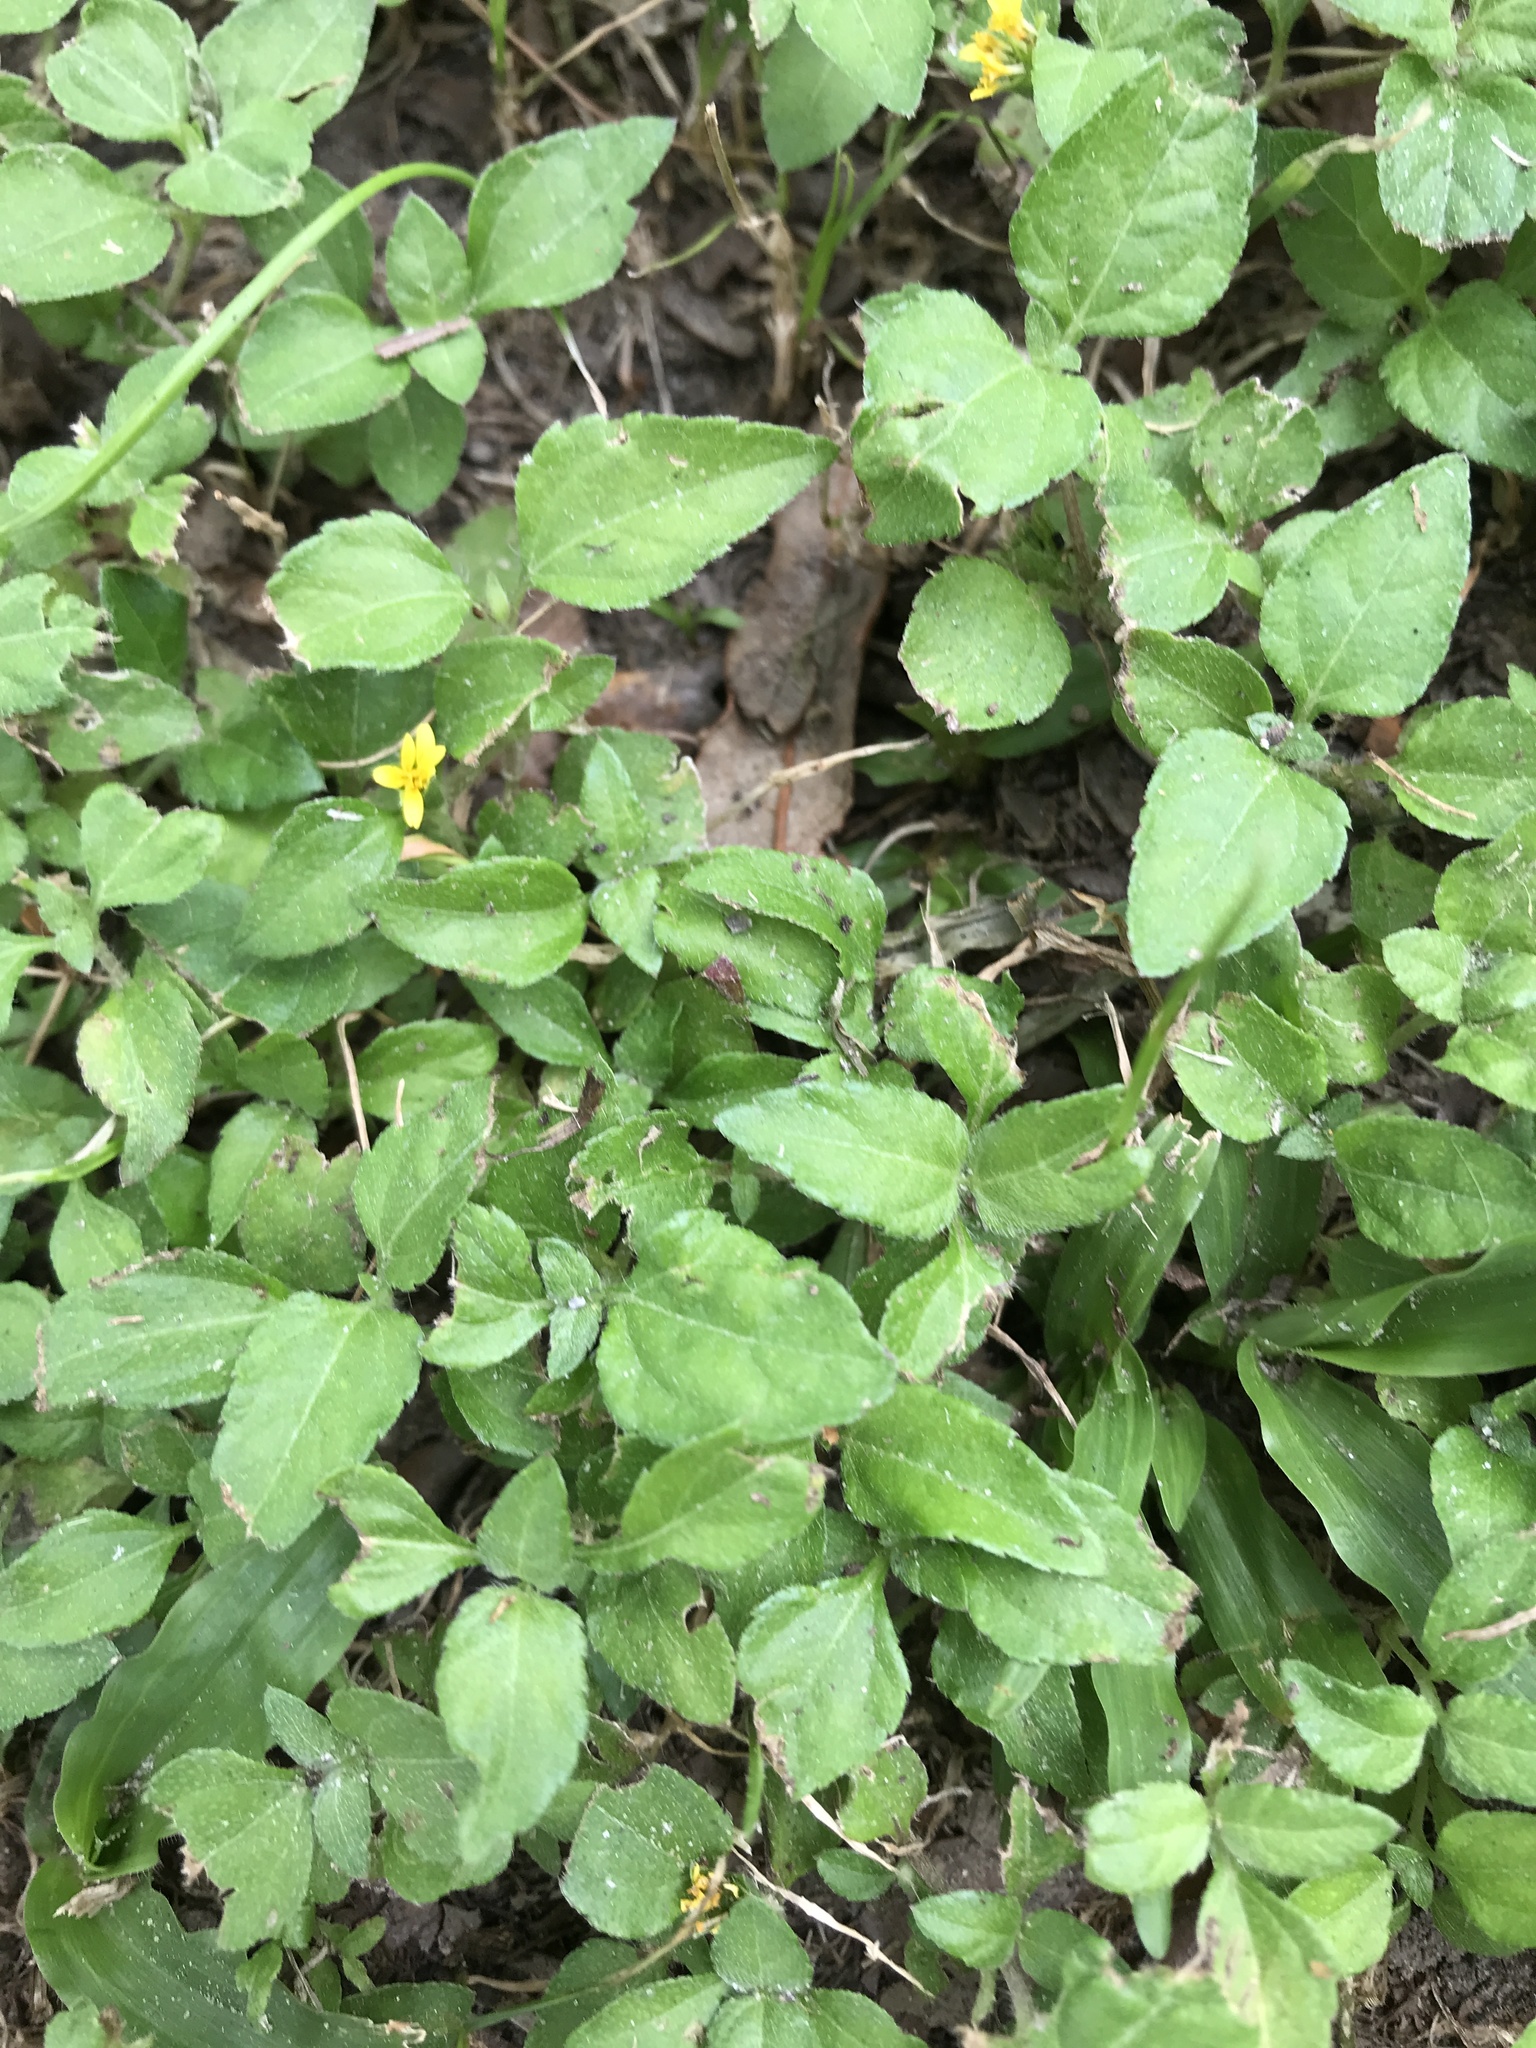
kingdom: Plantae
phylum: Tracheophyta
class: Magnoliopsida
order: Asterales
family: Asteraceae
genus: Calyptocarpus
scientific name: Calyptocarpus vialis
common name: Straggler daisy
